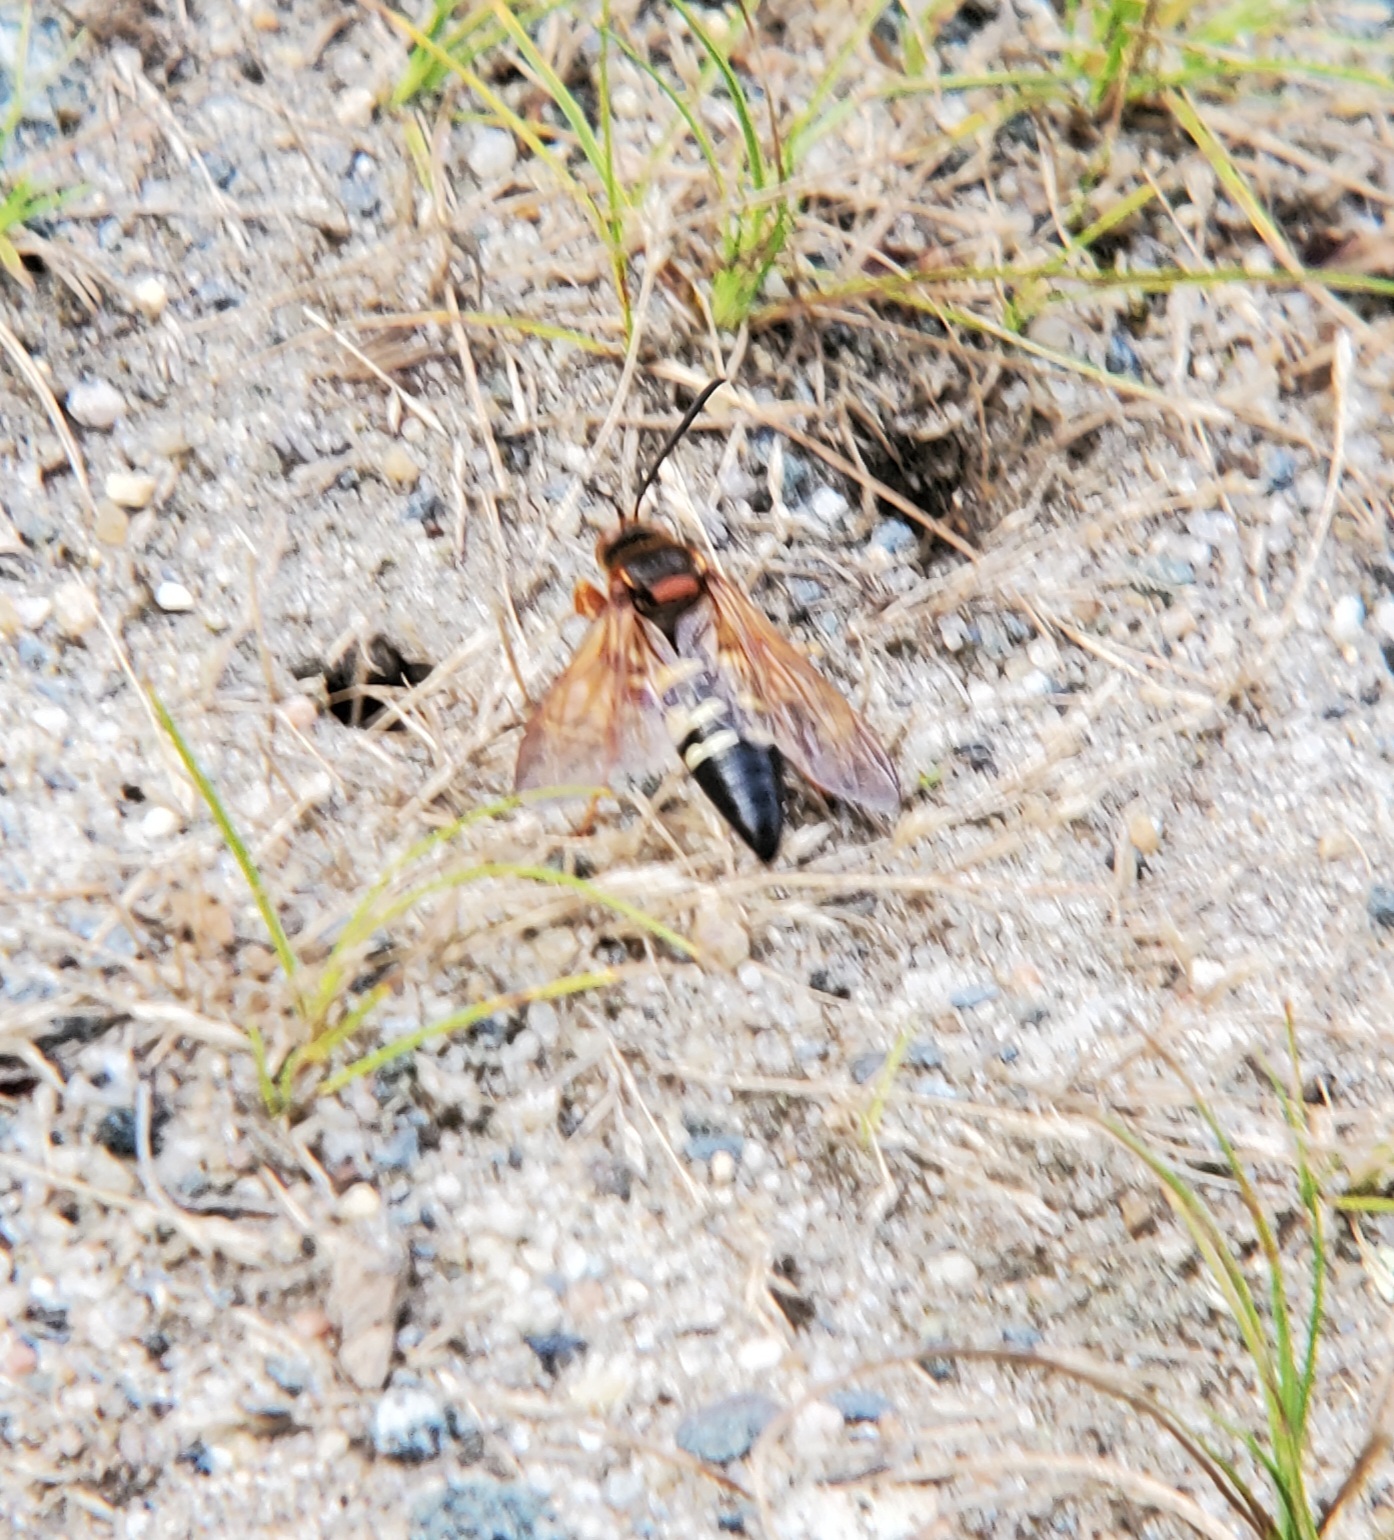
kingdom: Animalia
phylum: Arthropoda
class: Insecta
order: Hymenoptera
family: Crabronidae
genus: Sphecius
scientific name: Sphecius speciosus
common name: Cicada killer
